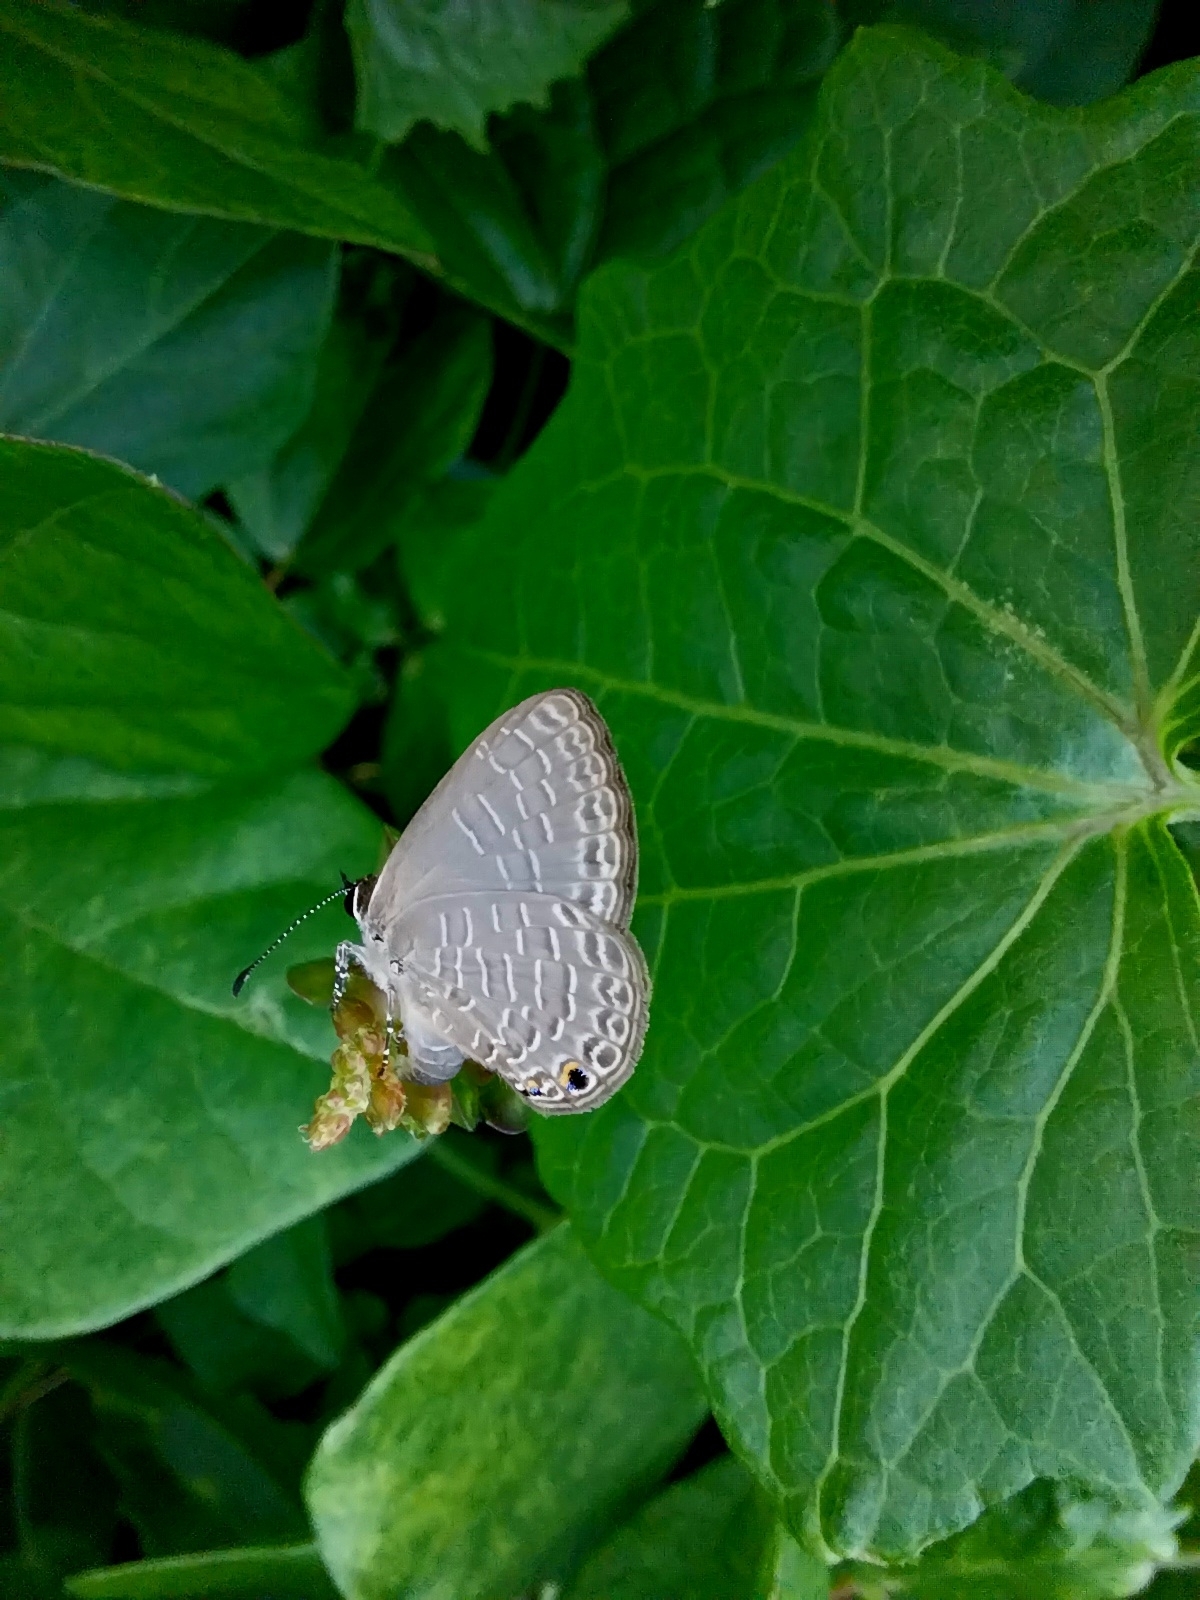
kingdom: Animalia
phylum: Arthropoda
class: Insecta
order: Lepidoptera
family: Lycaenidae
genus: Jamides
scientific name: Jamides walkeri
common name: Cook islands blue
